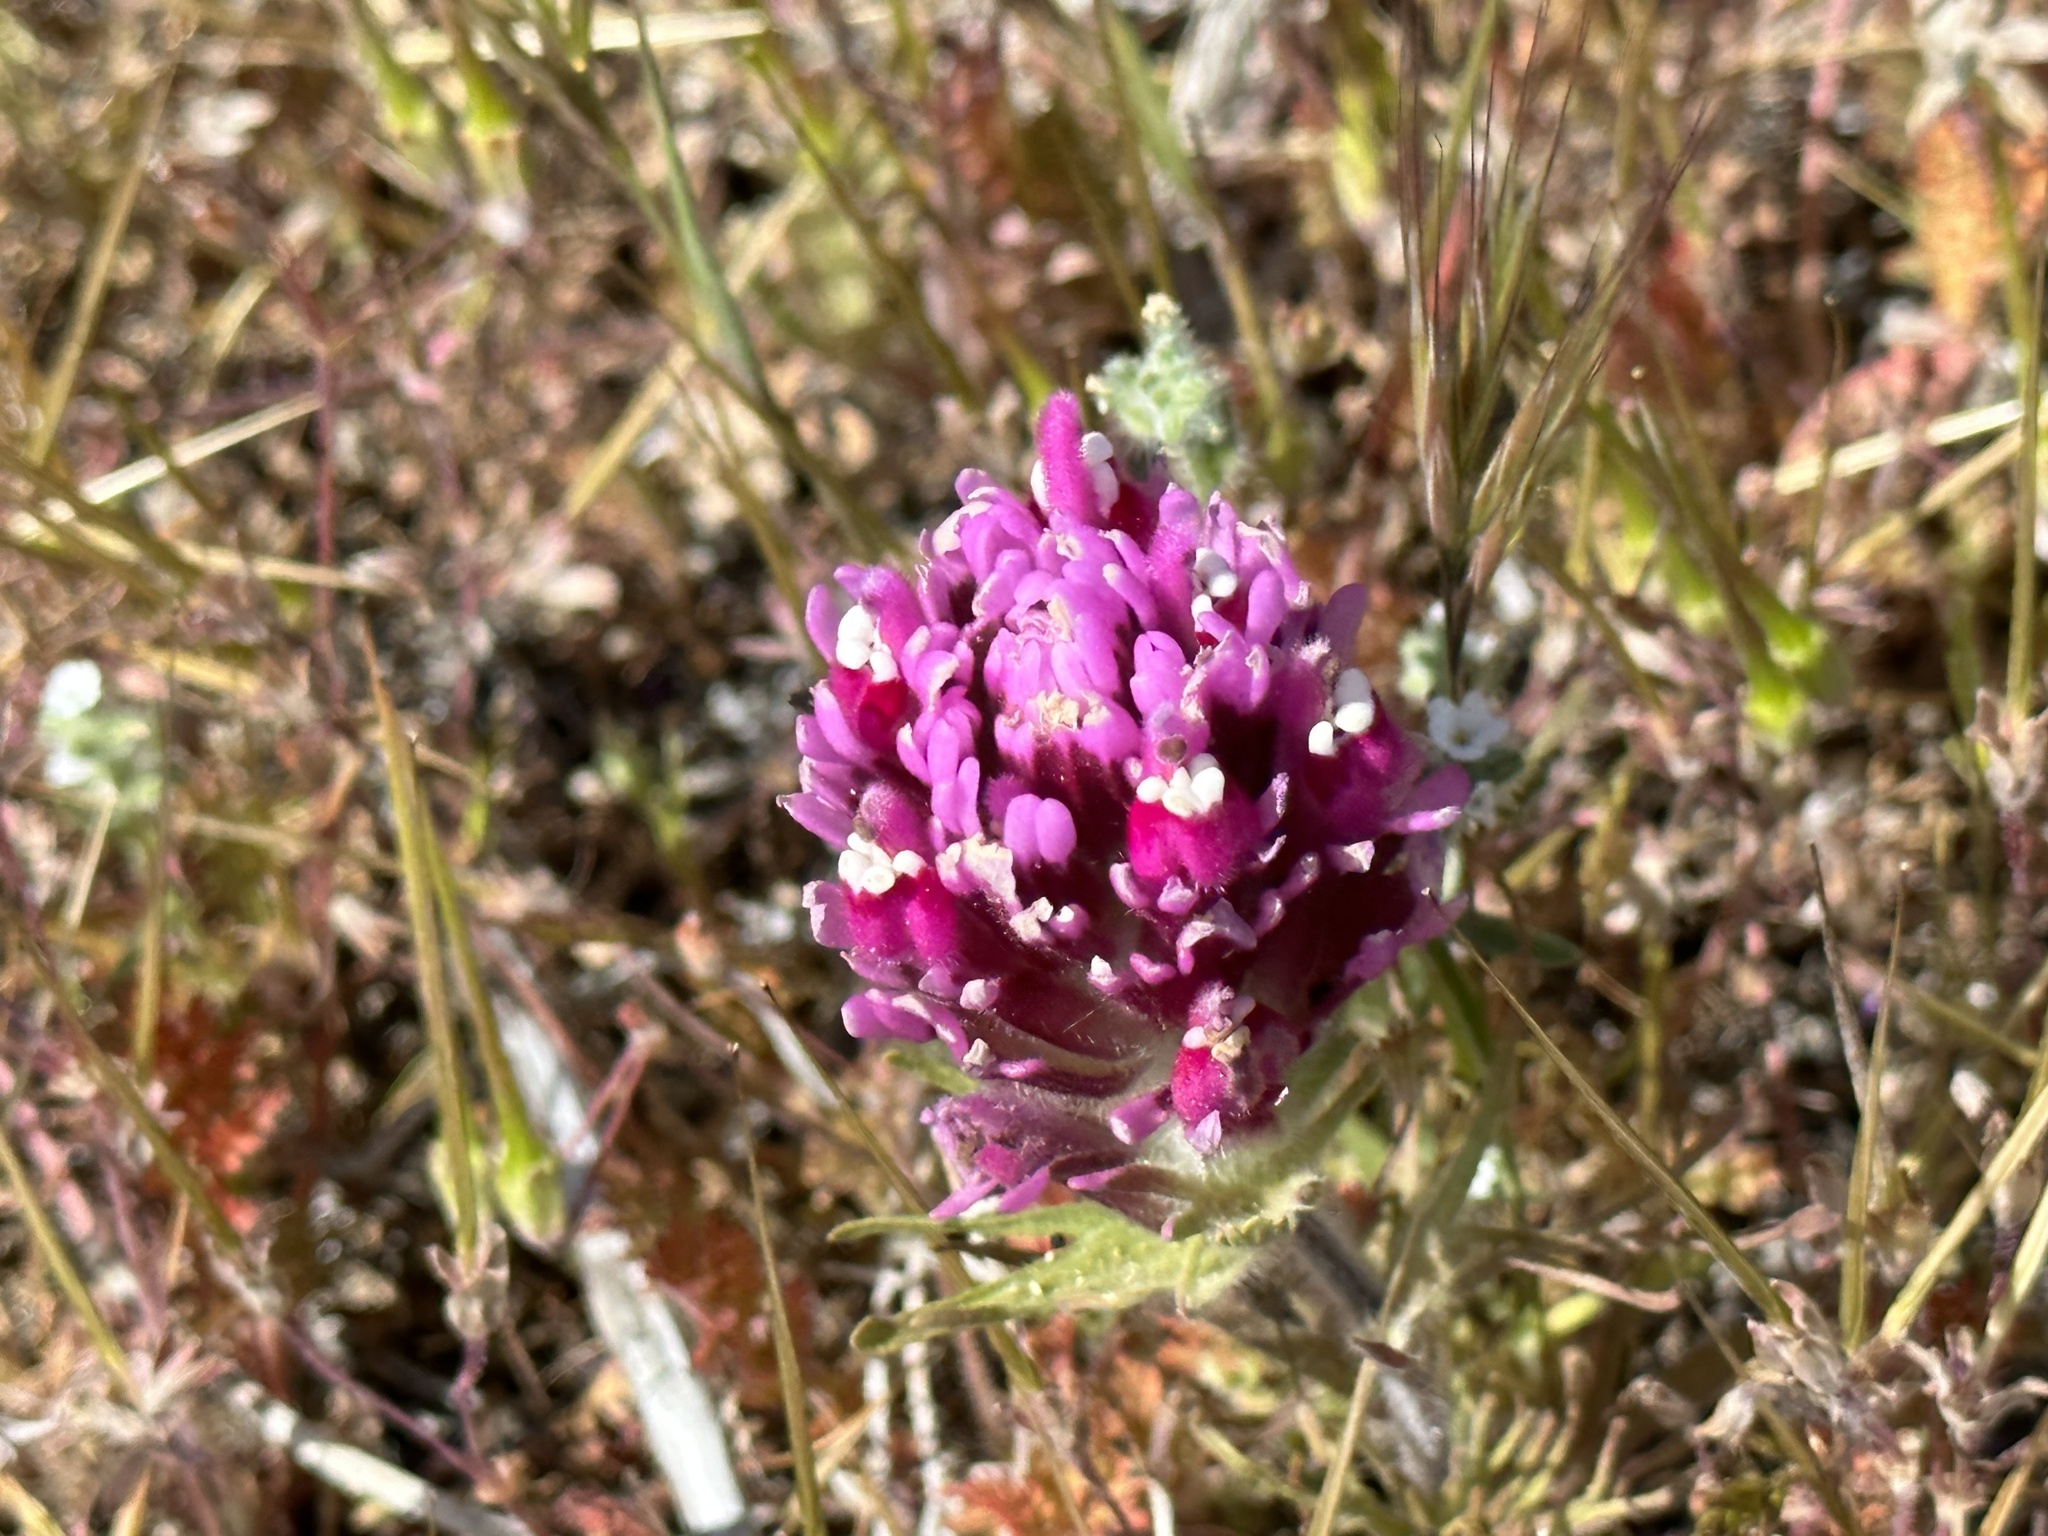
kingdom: Plantae
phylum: Tracheophyta
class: Magnoliopsida
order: Lamiales
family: Orobanchaceae
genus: Castilleja
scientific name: Castilleja exserta
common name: Purple owl-clover
